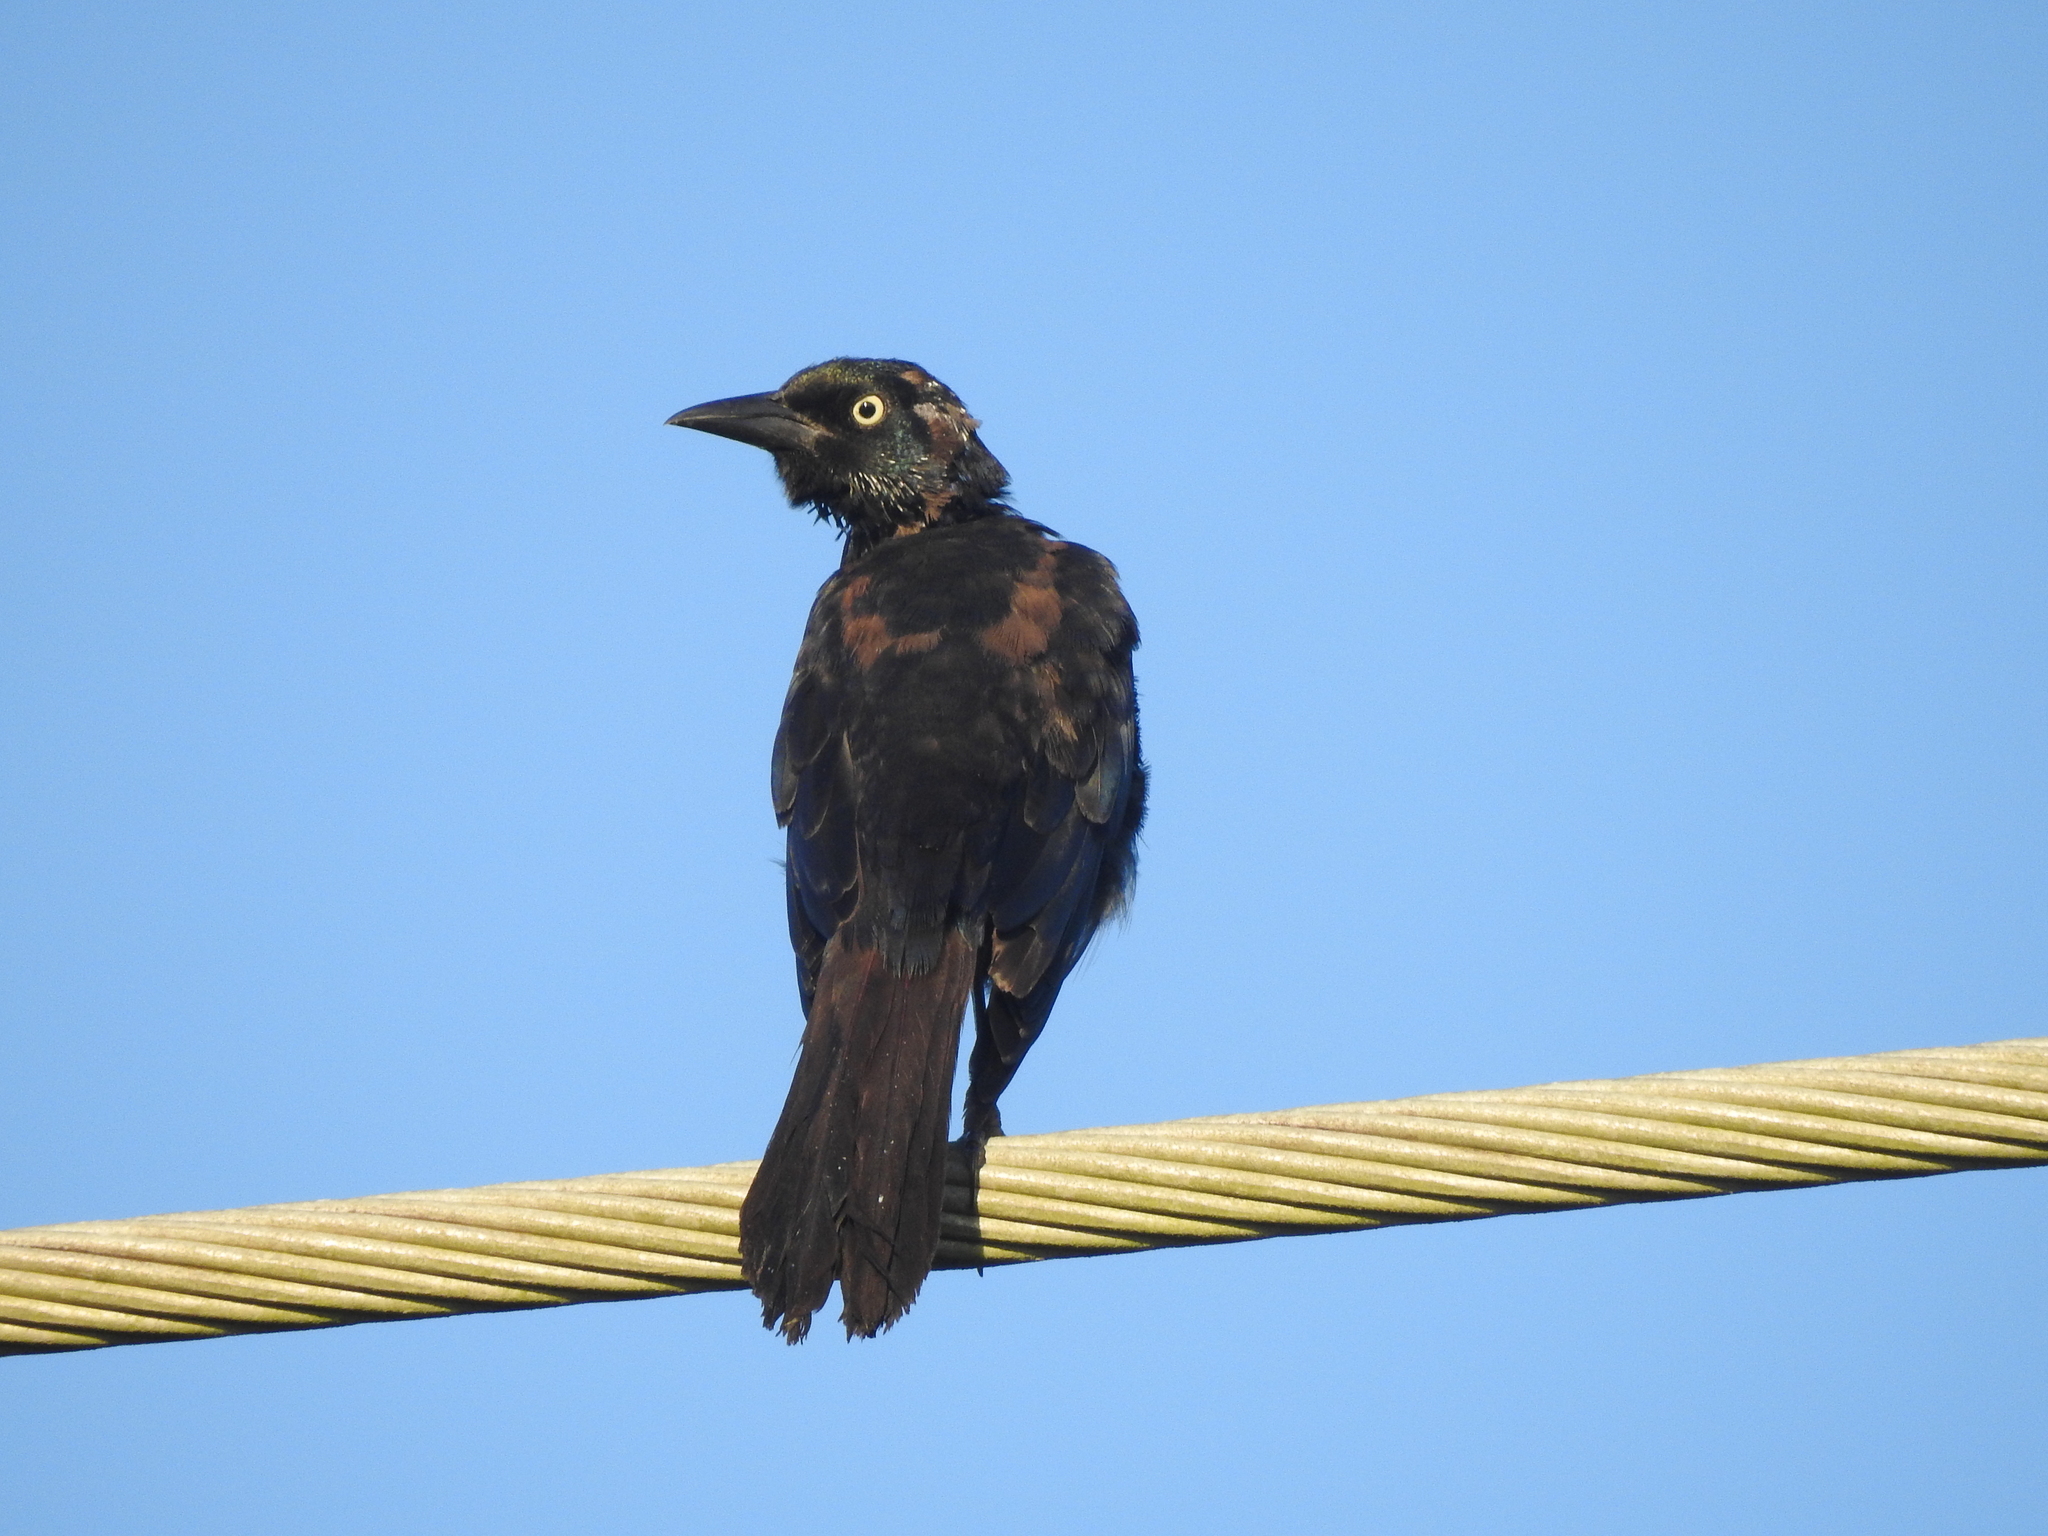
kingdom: Animalia
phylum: Chordata
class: Aves
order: Passeriformes
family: Icteridae
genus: Quiscalus
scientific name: Quiscalus quiscula
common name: Common grackle
